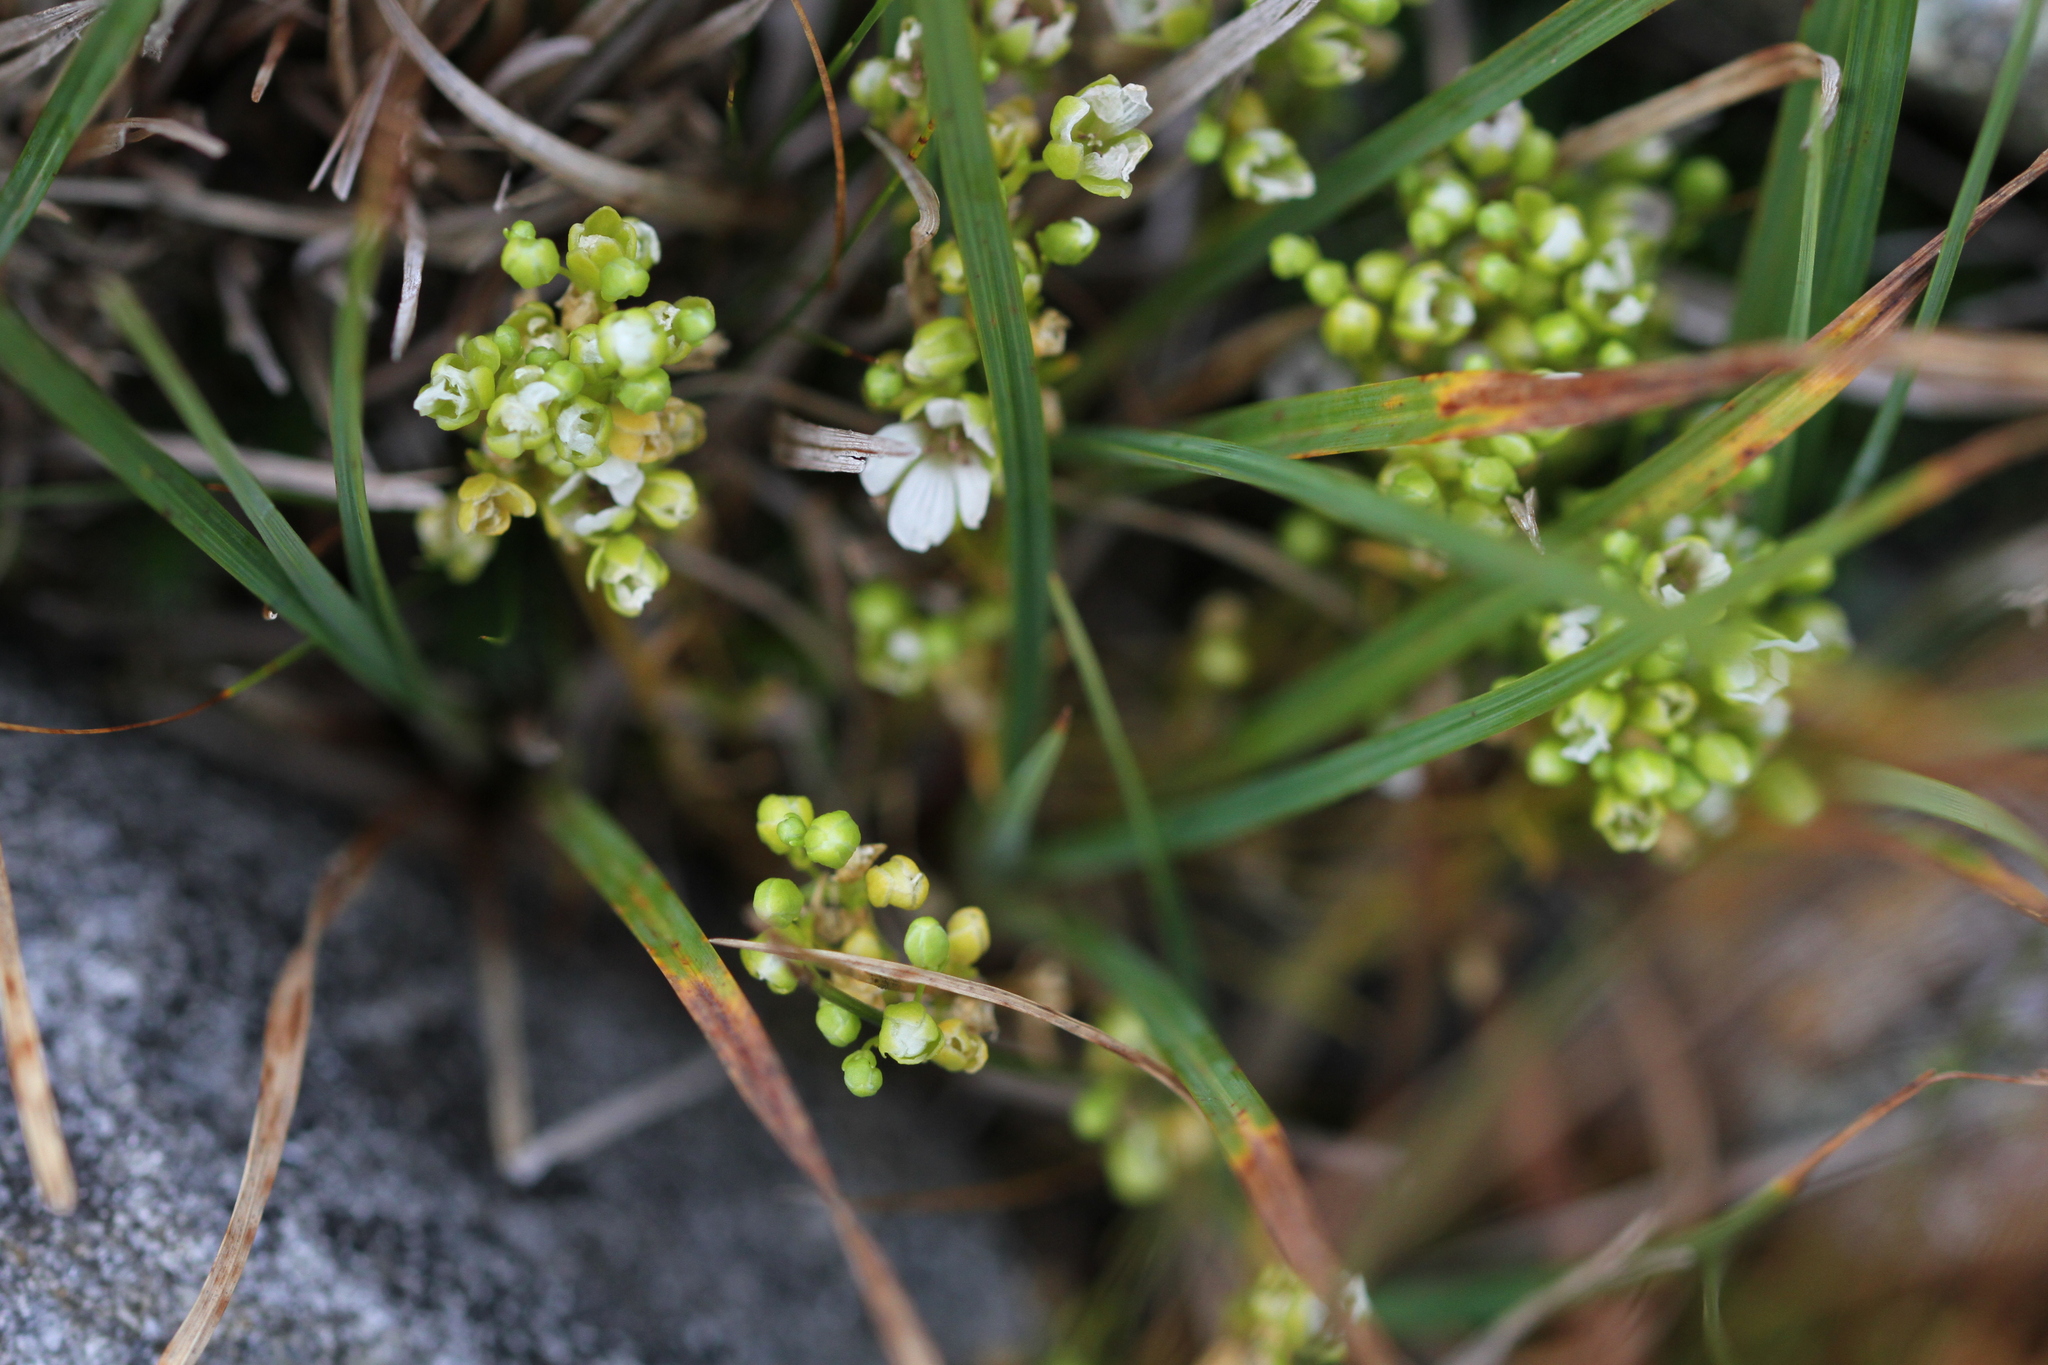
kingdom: Plantae
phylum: Tracheophyta
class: Magnoliopsida
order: Caryophyllales
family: Caryophyllaceae
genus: Geocarpon
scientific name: Geocarpon groenlandicum
